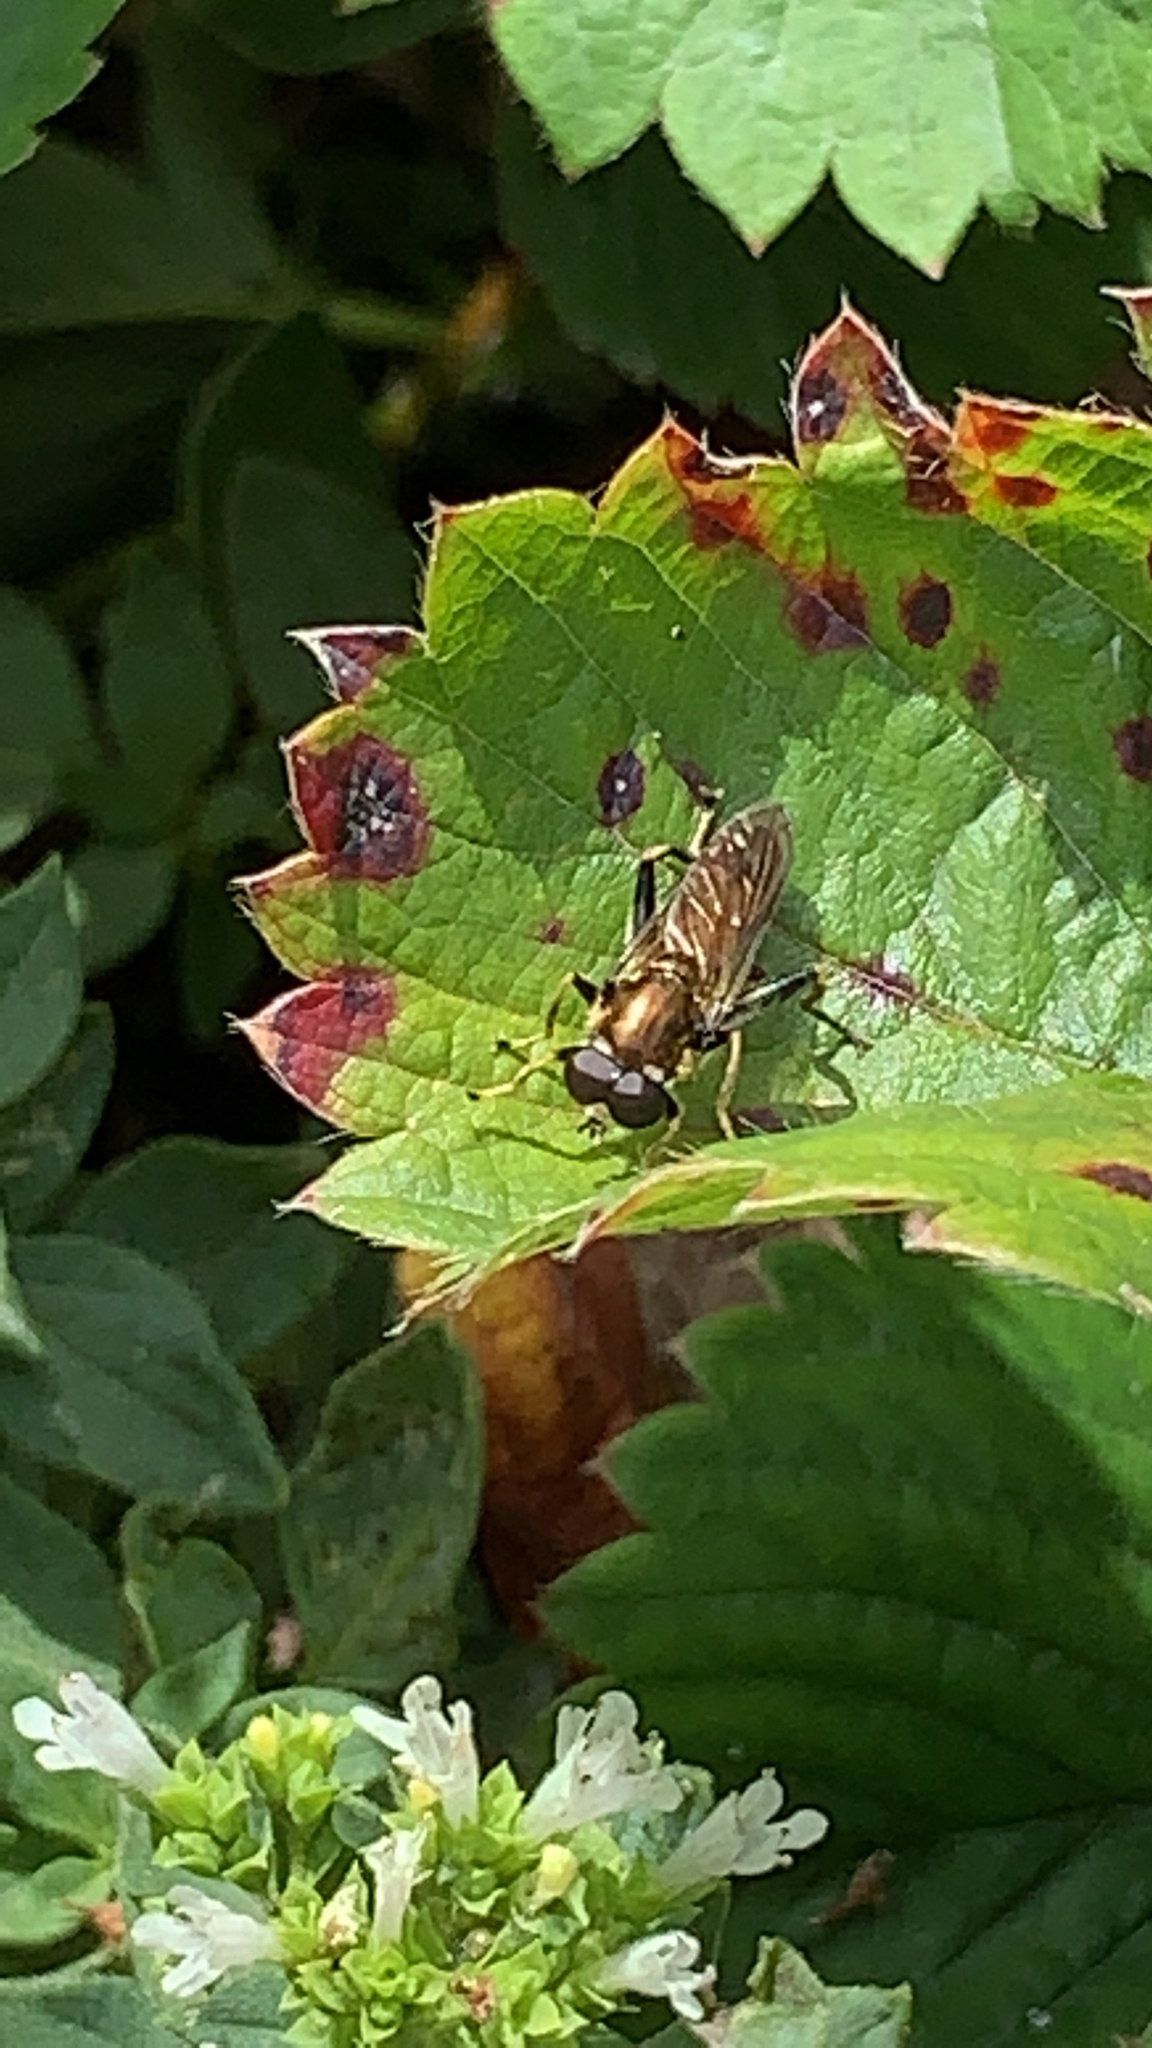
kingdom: Animalia
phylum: Arthropoda
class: Insecta
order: Diptera
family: Syrphidae
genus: Xylota
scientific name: Xylota segnis
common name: Brown-toed forest fly
